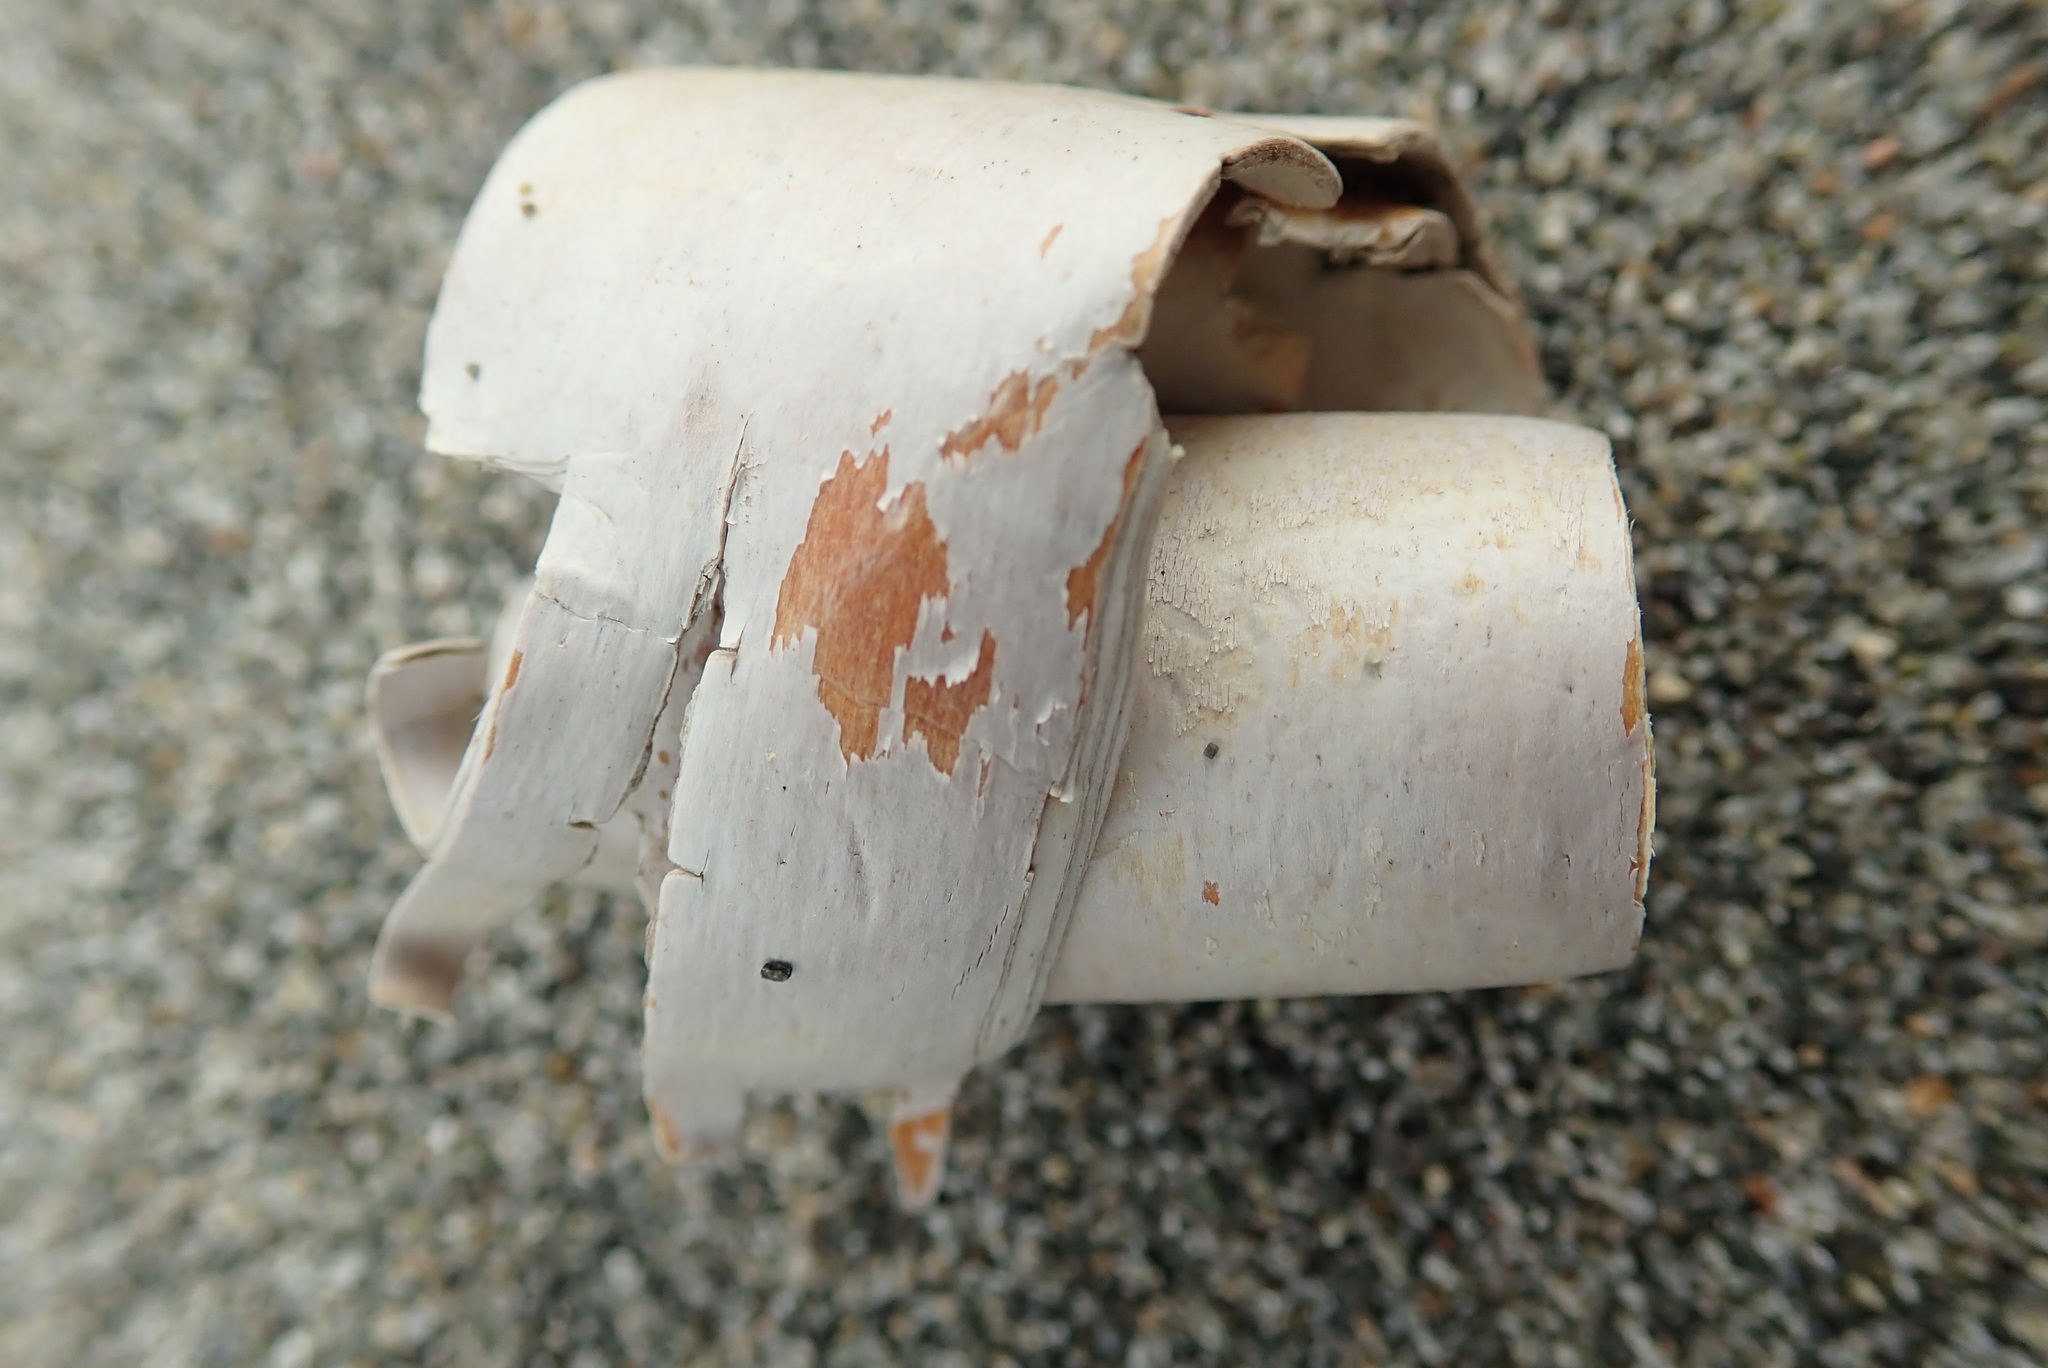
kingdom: Plantae
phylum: Tracheophyta
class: Magnoliopsida
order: Fagales
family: Betulaceae
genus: Betula
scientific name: Betula papyrifera
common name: Paper birch
